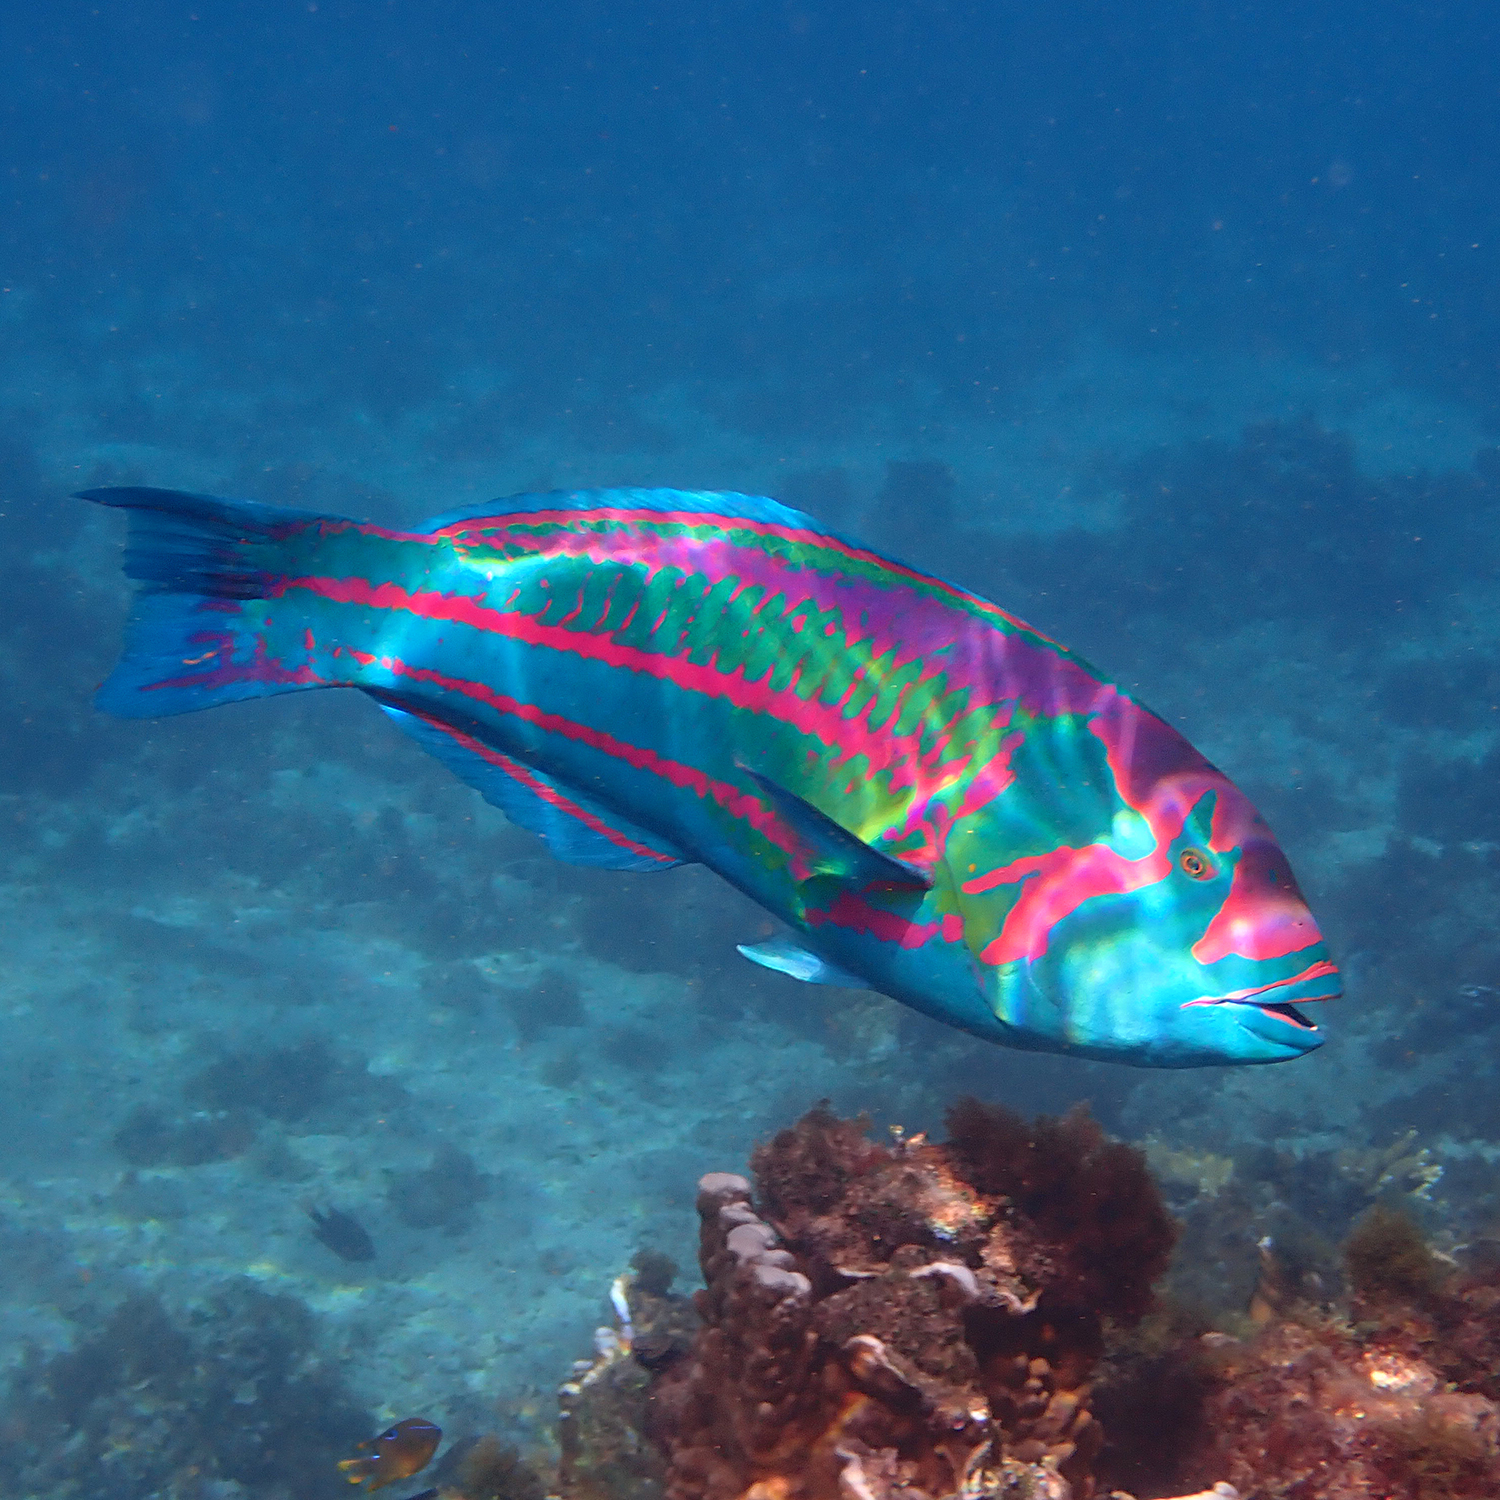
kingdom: Animalia
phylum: Chordata
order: Perciformes
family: Labridae
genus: Thalassoma
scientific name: Thalassoma purpureum
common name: Parrotfish
